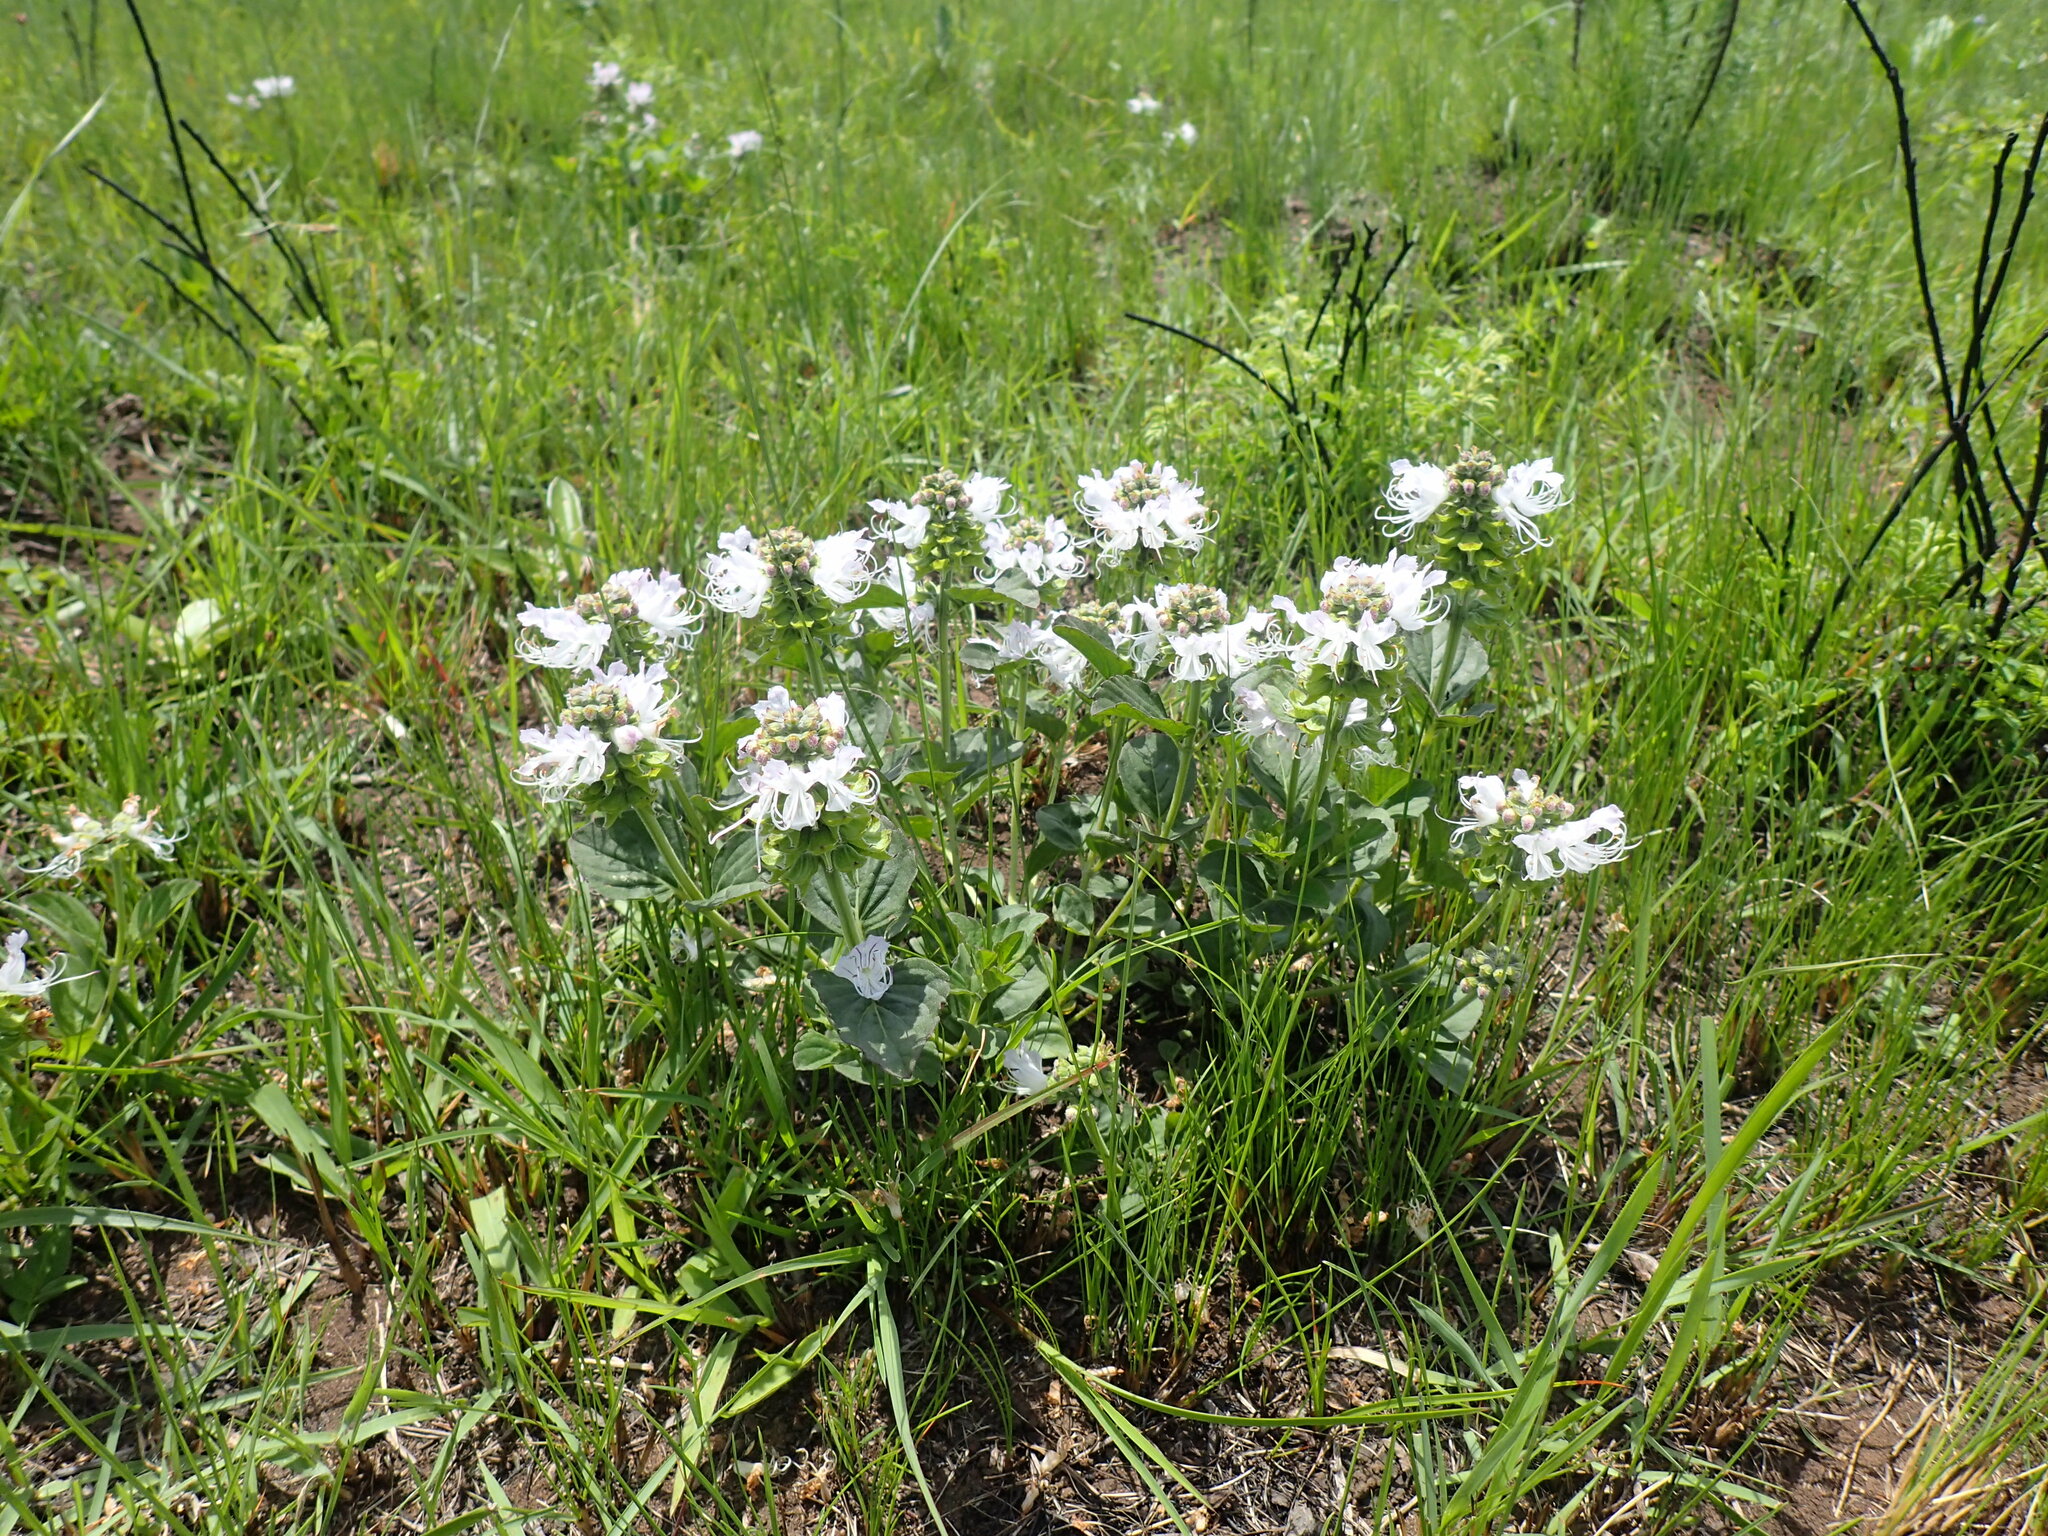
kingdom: Plantae
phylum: Tracheophyta
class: Magnoliopsida
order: Lamiales
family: Lamiaceae
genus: Ocimum
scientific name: Ocimum obovatum
